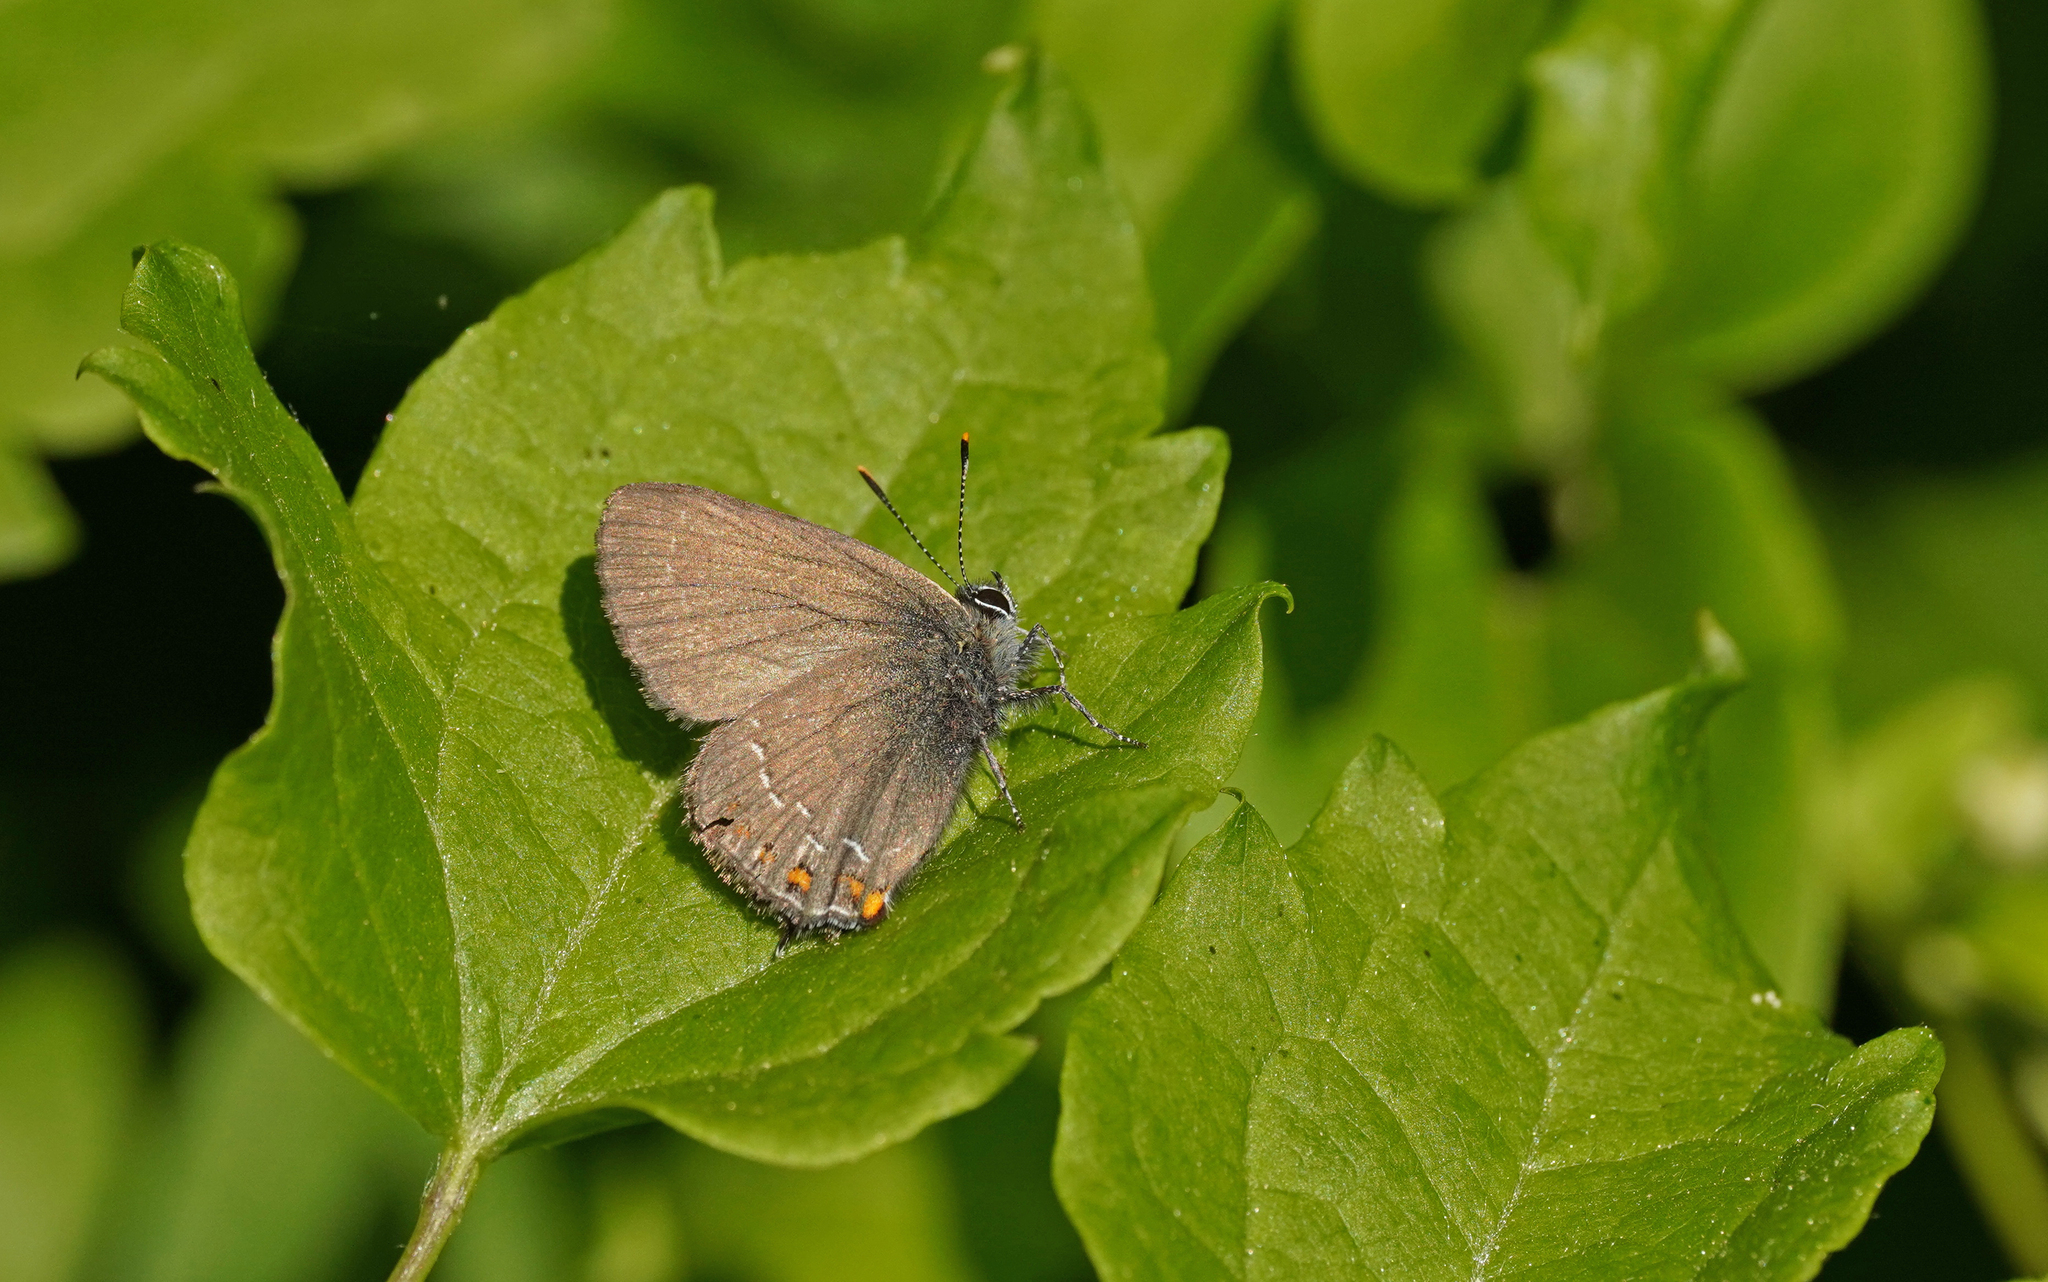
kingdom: Animalia
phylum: Arthropoda
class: Insecta
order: Lepidoptera
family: Lycaenidae
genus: Nordmannia
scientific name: Nordmannia ilicis
